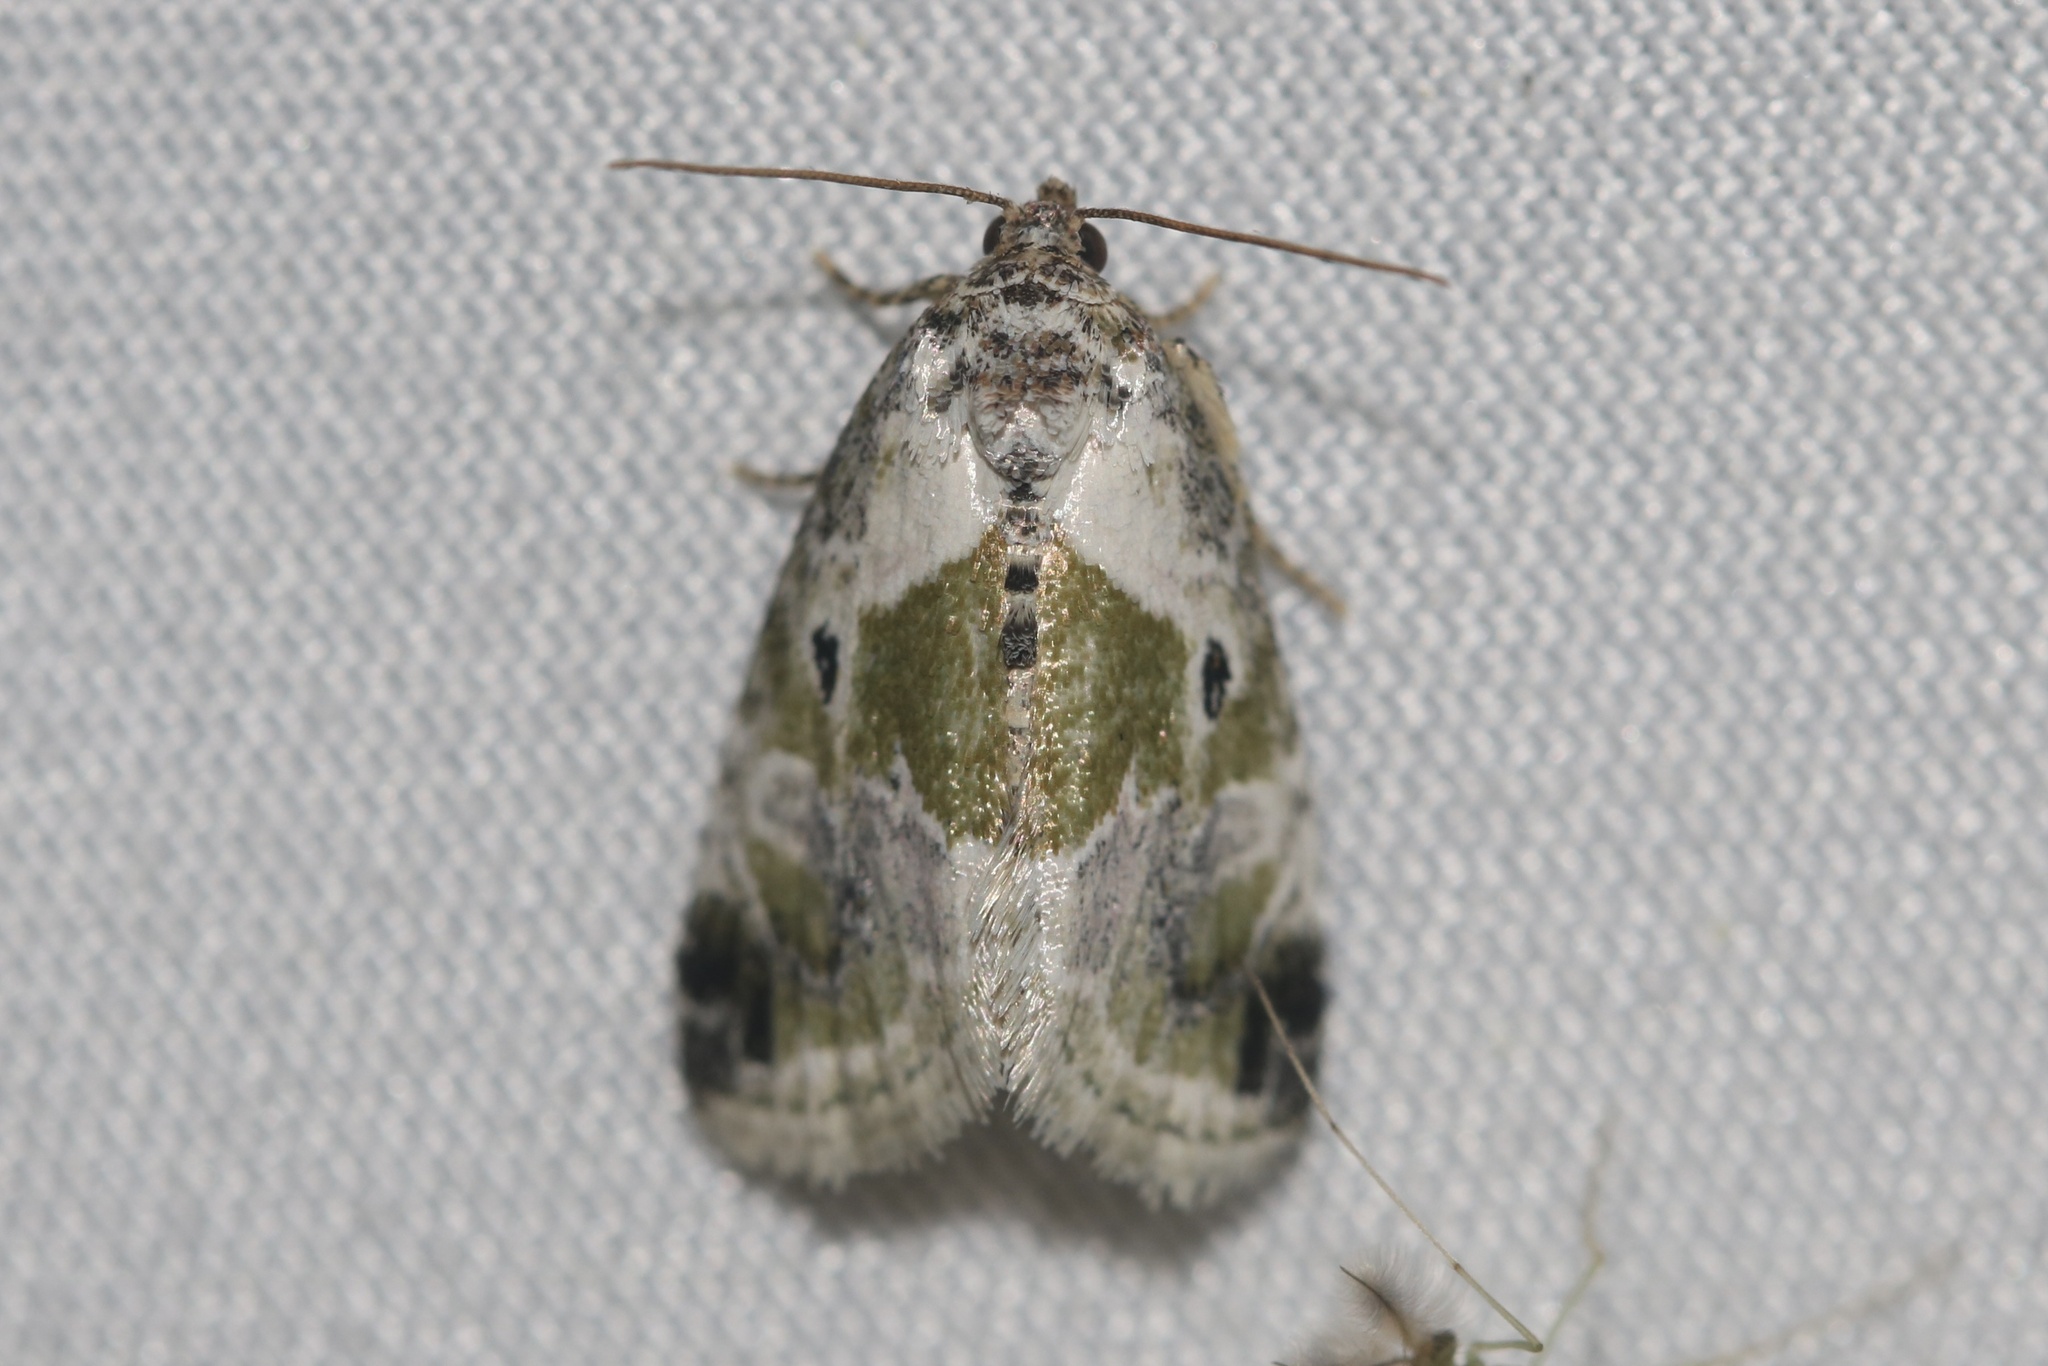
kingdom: Animalia
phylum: Arthropoda
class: Insecta
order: Lepidoptera
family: Noctuidae
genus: Maliattha
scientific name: Maliattha synochitis
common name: Black-dotted glyph
